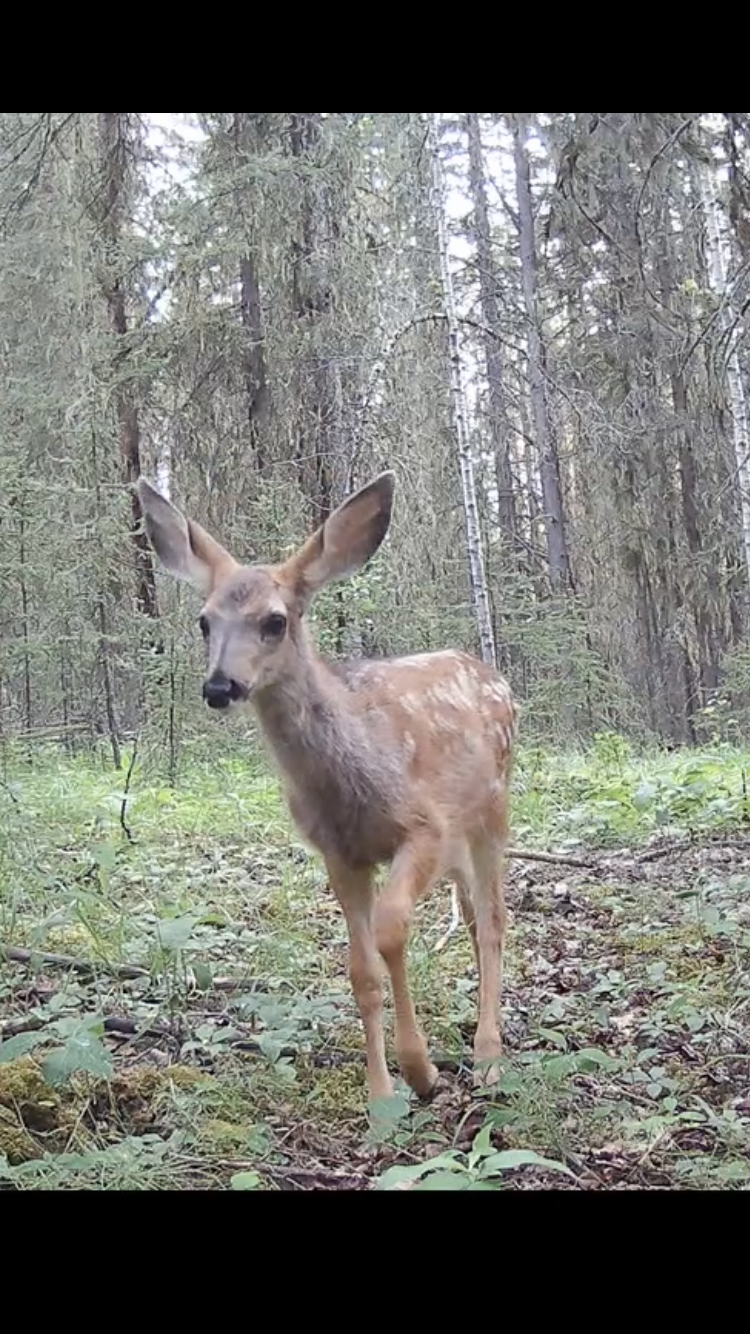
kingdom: Animalia
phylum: Chordata
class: Mammalia
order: Artiodactyla
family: Cervidae
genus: Odocoileus
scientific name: Odocoileus hemionus
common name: Mule deer
